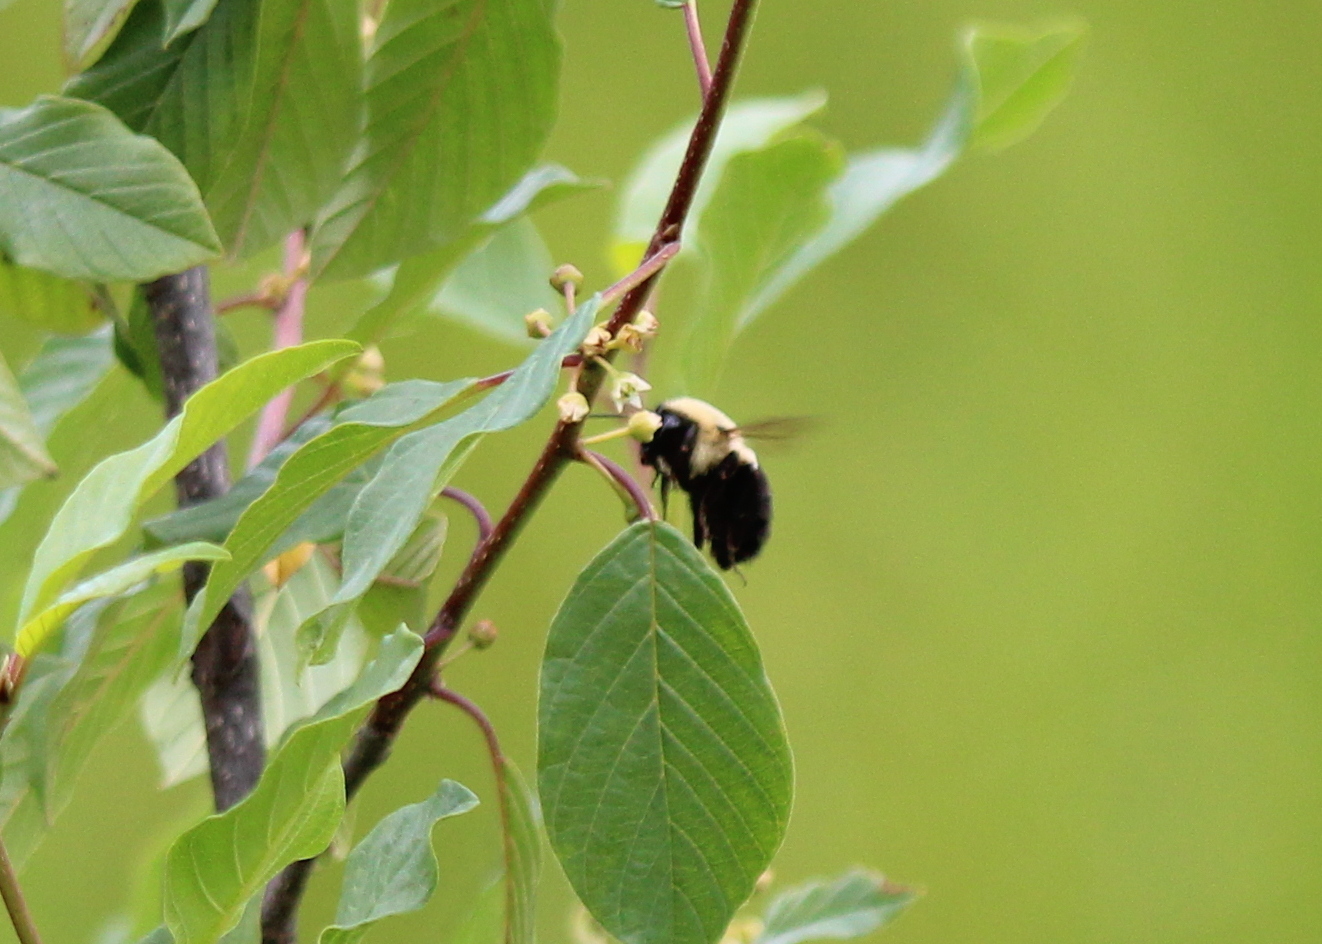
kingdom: Animalia
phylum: Arthropoda
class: Insecta
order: Hymenoptera
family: Apidae
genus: Bombus
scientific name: Bombus impatiens
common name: Common eastern bumble bee
